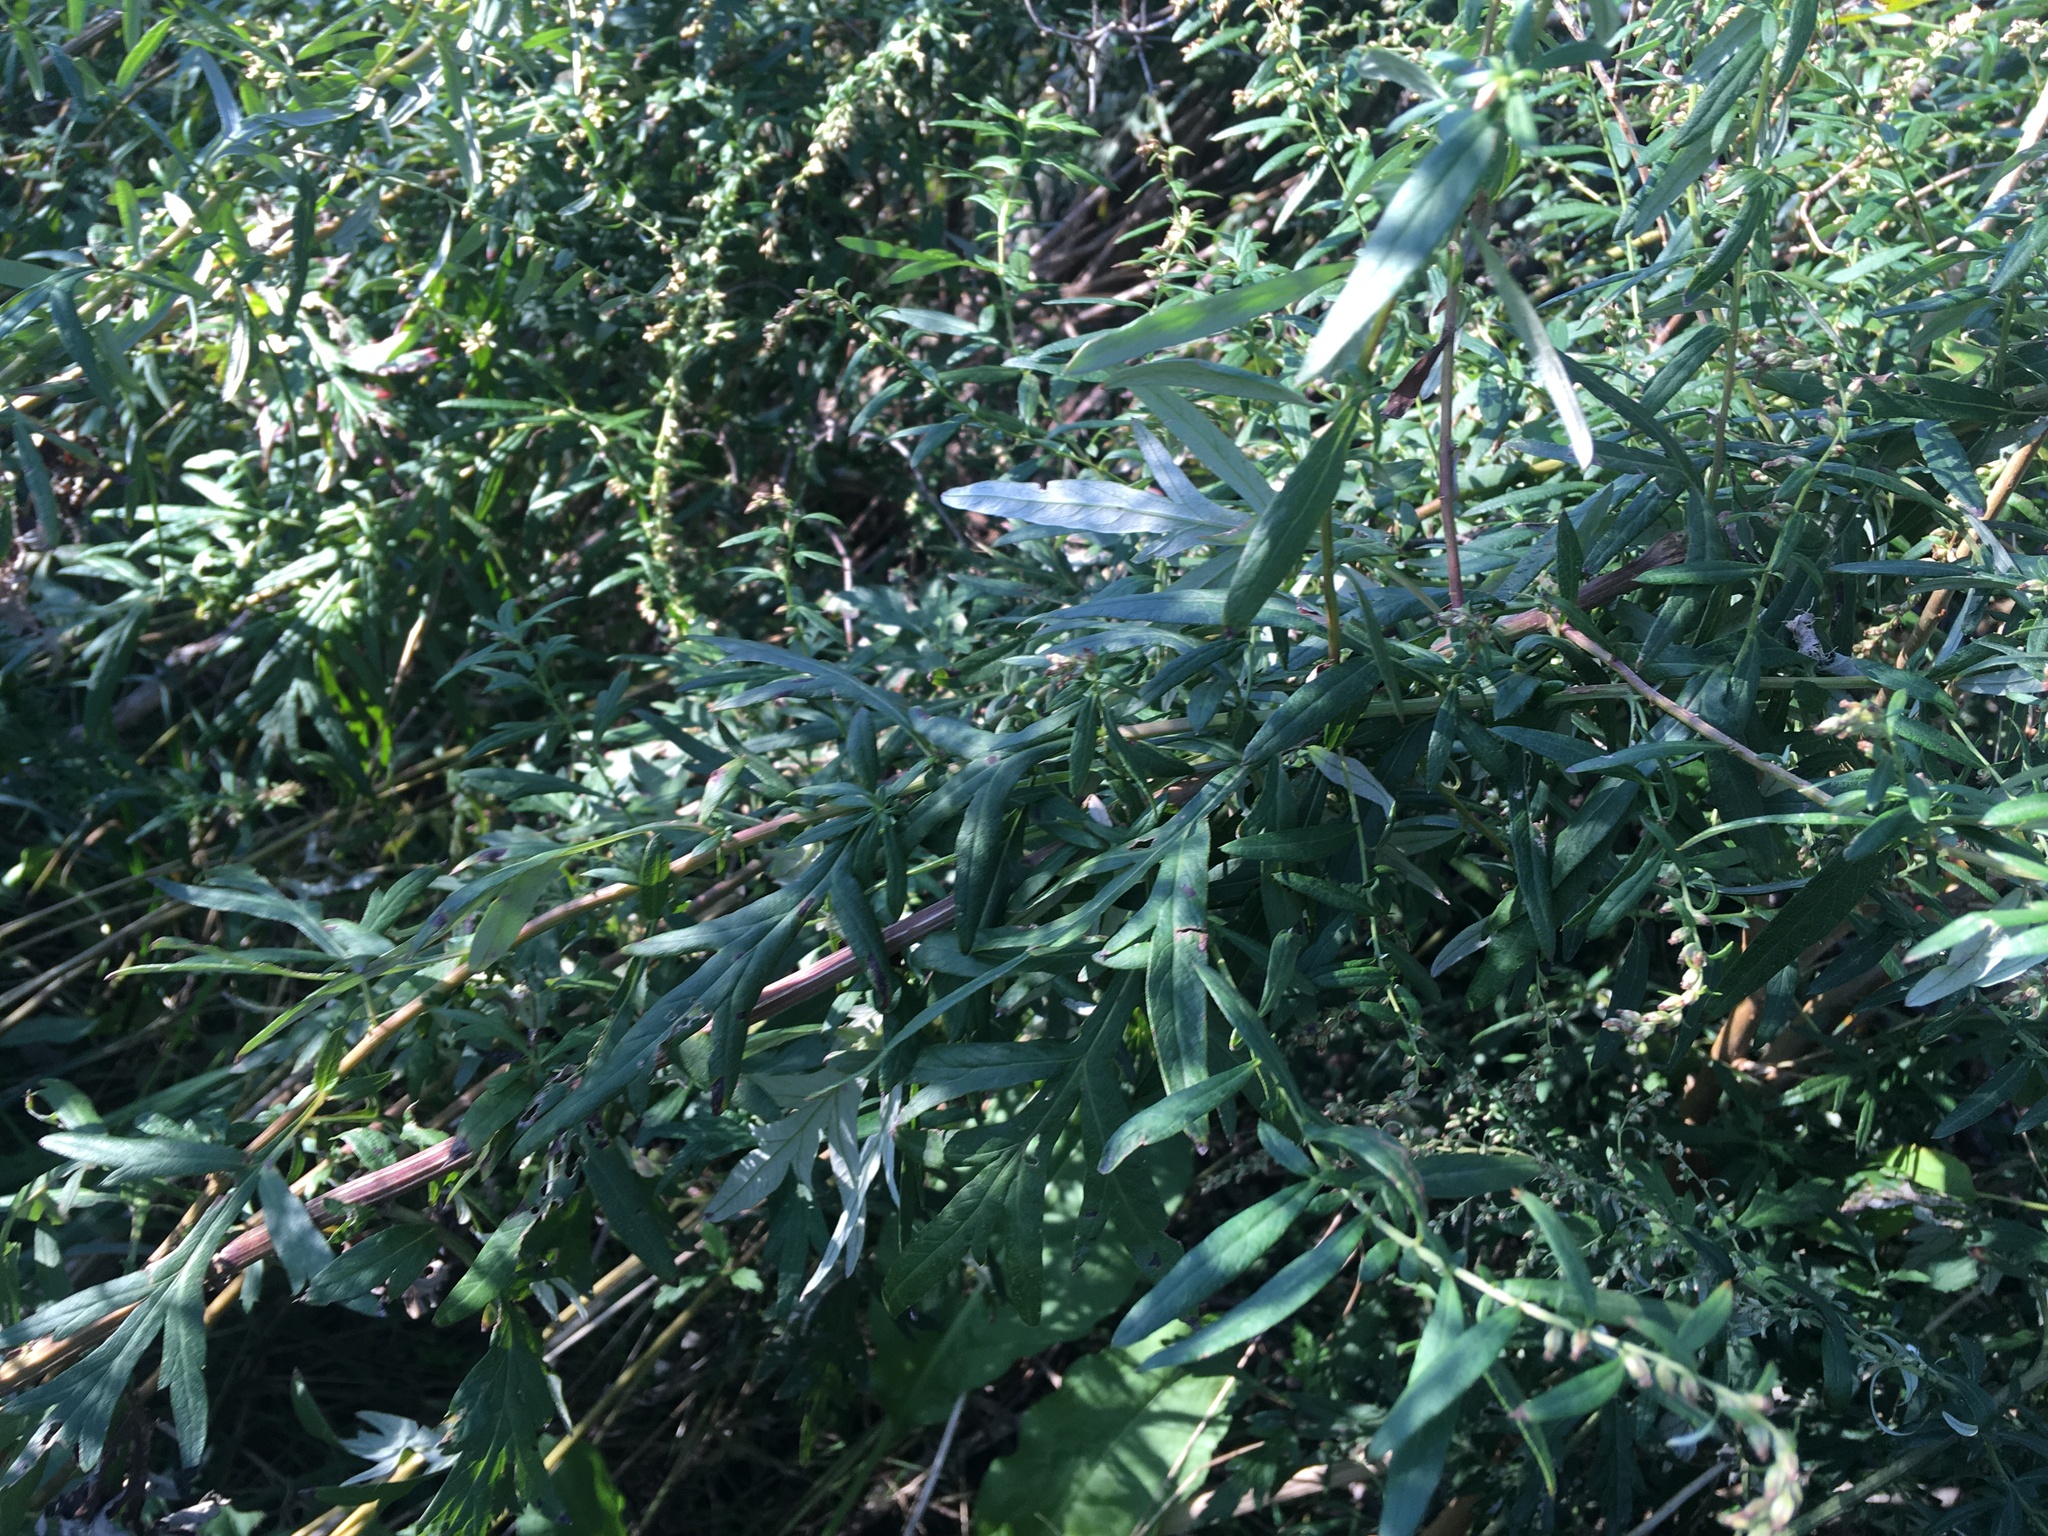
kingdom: Plantae
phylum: Tracheophyta
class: Magnoliopsida
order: Asterales
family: Asteraceae
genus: Artemisia
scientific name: Artemisia vulgaris
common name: Mugwort
